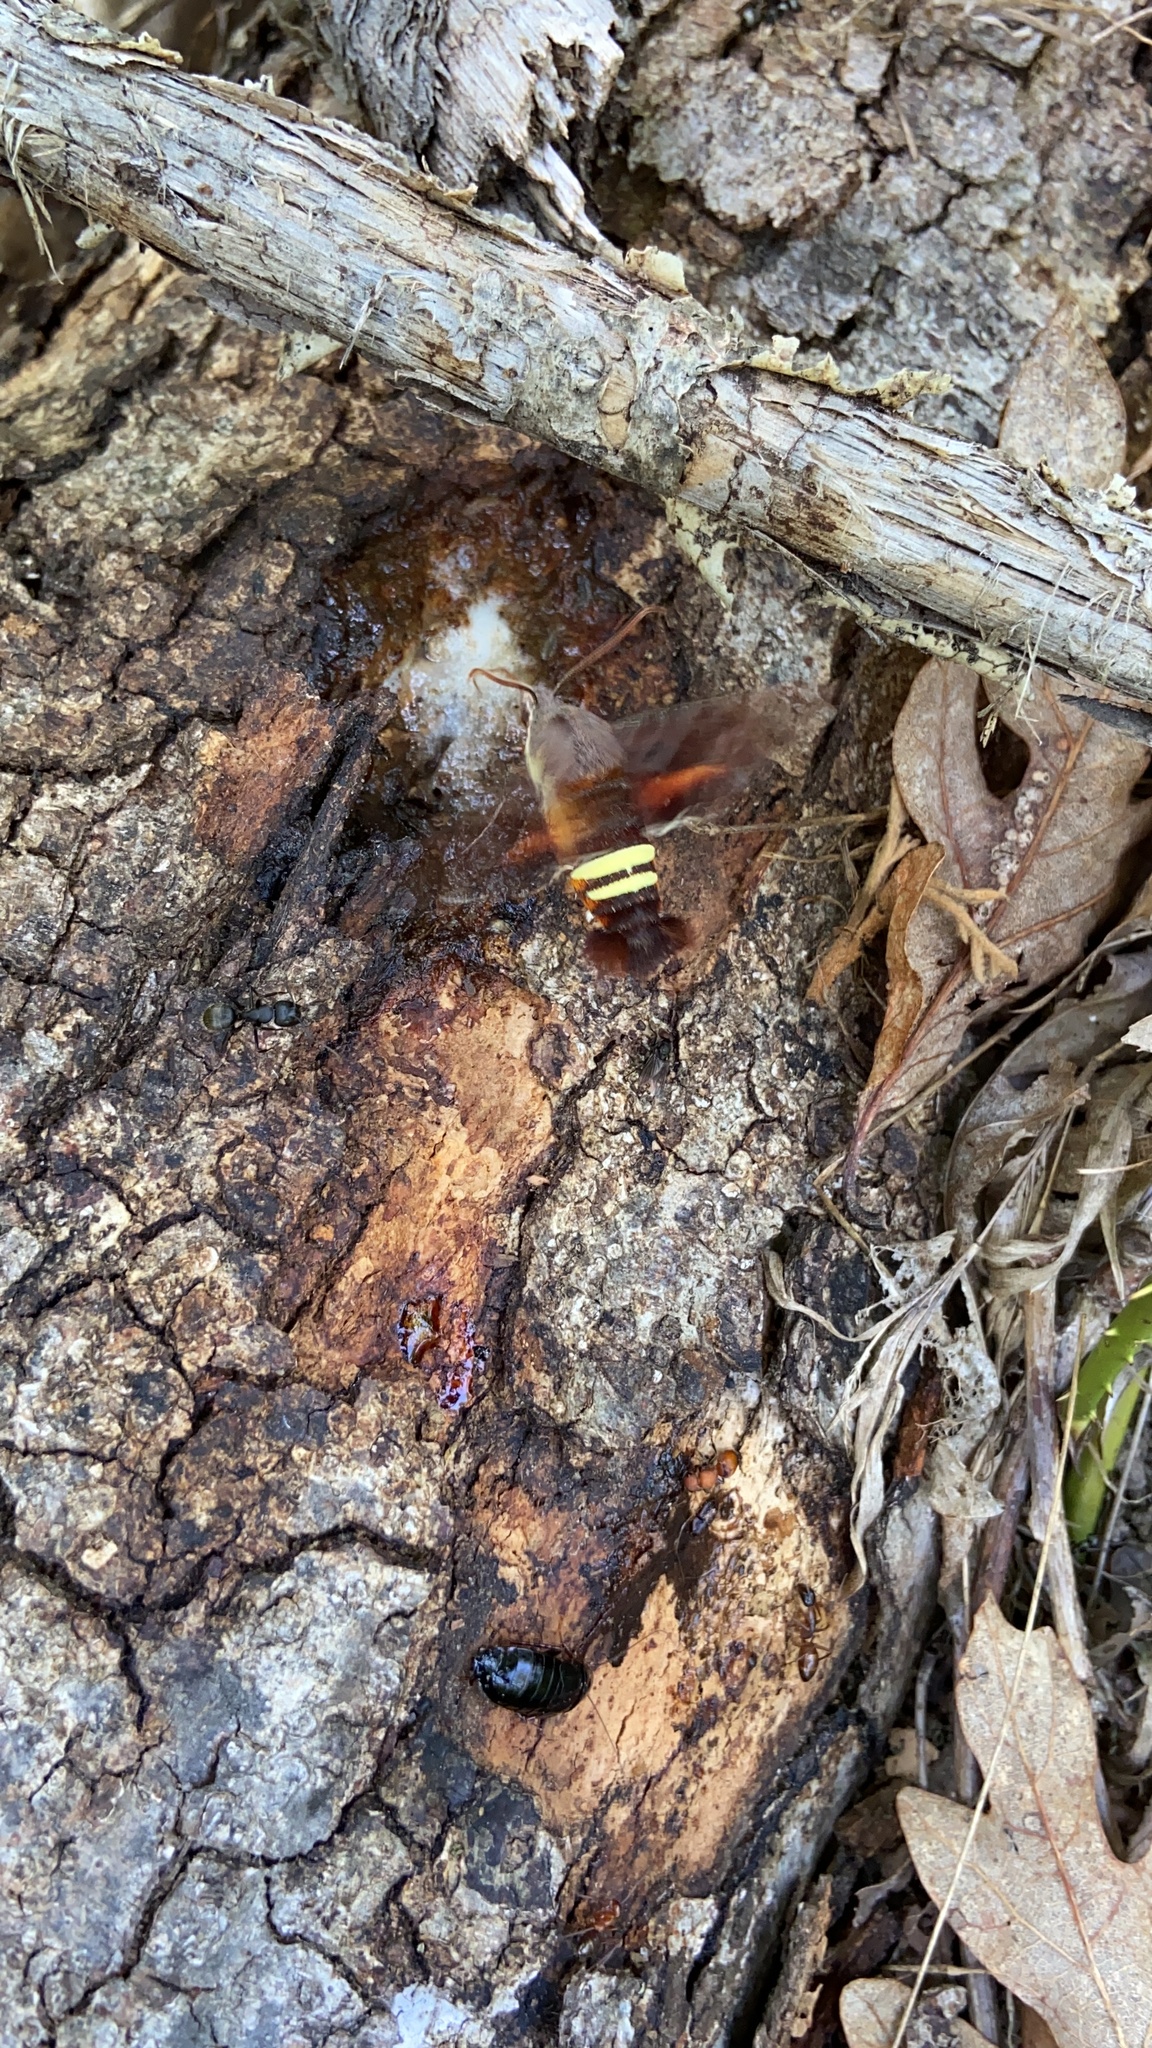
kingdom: Animalia
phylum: Arthropoda
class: Insecta
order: Lepidoptera
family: Sphingidae
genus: Amphion
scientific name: Amphion floridensis
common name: Nessus sphinx
